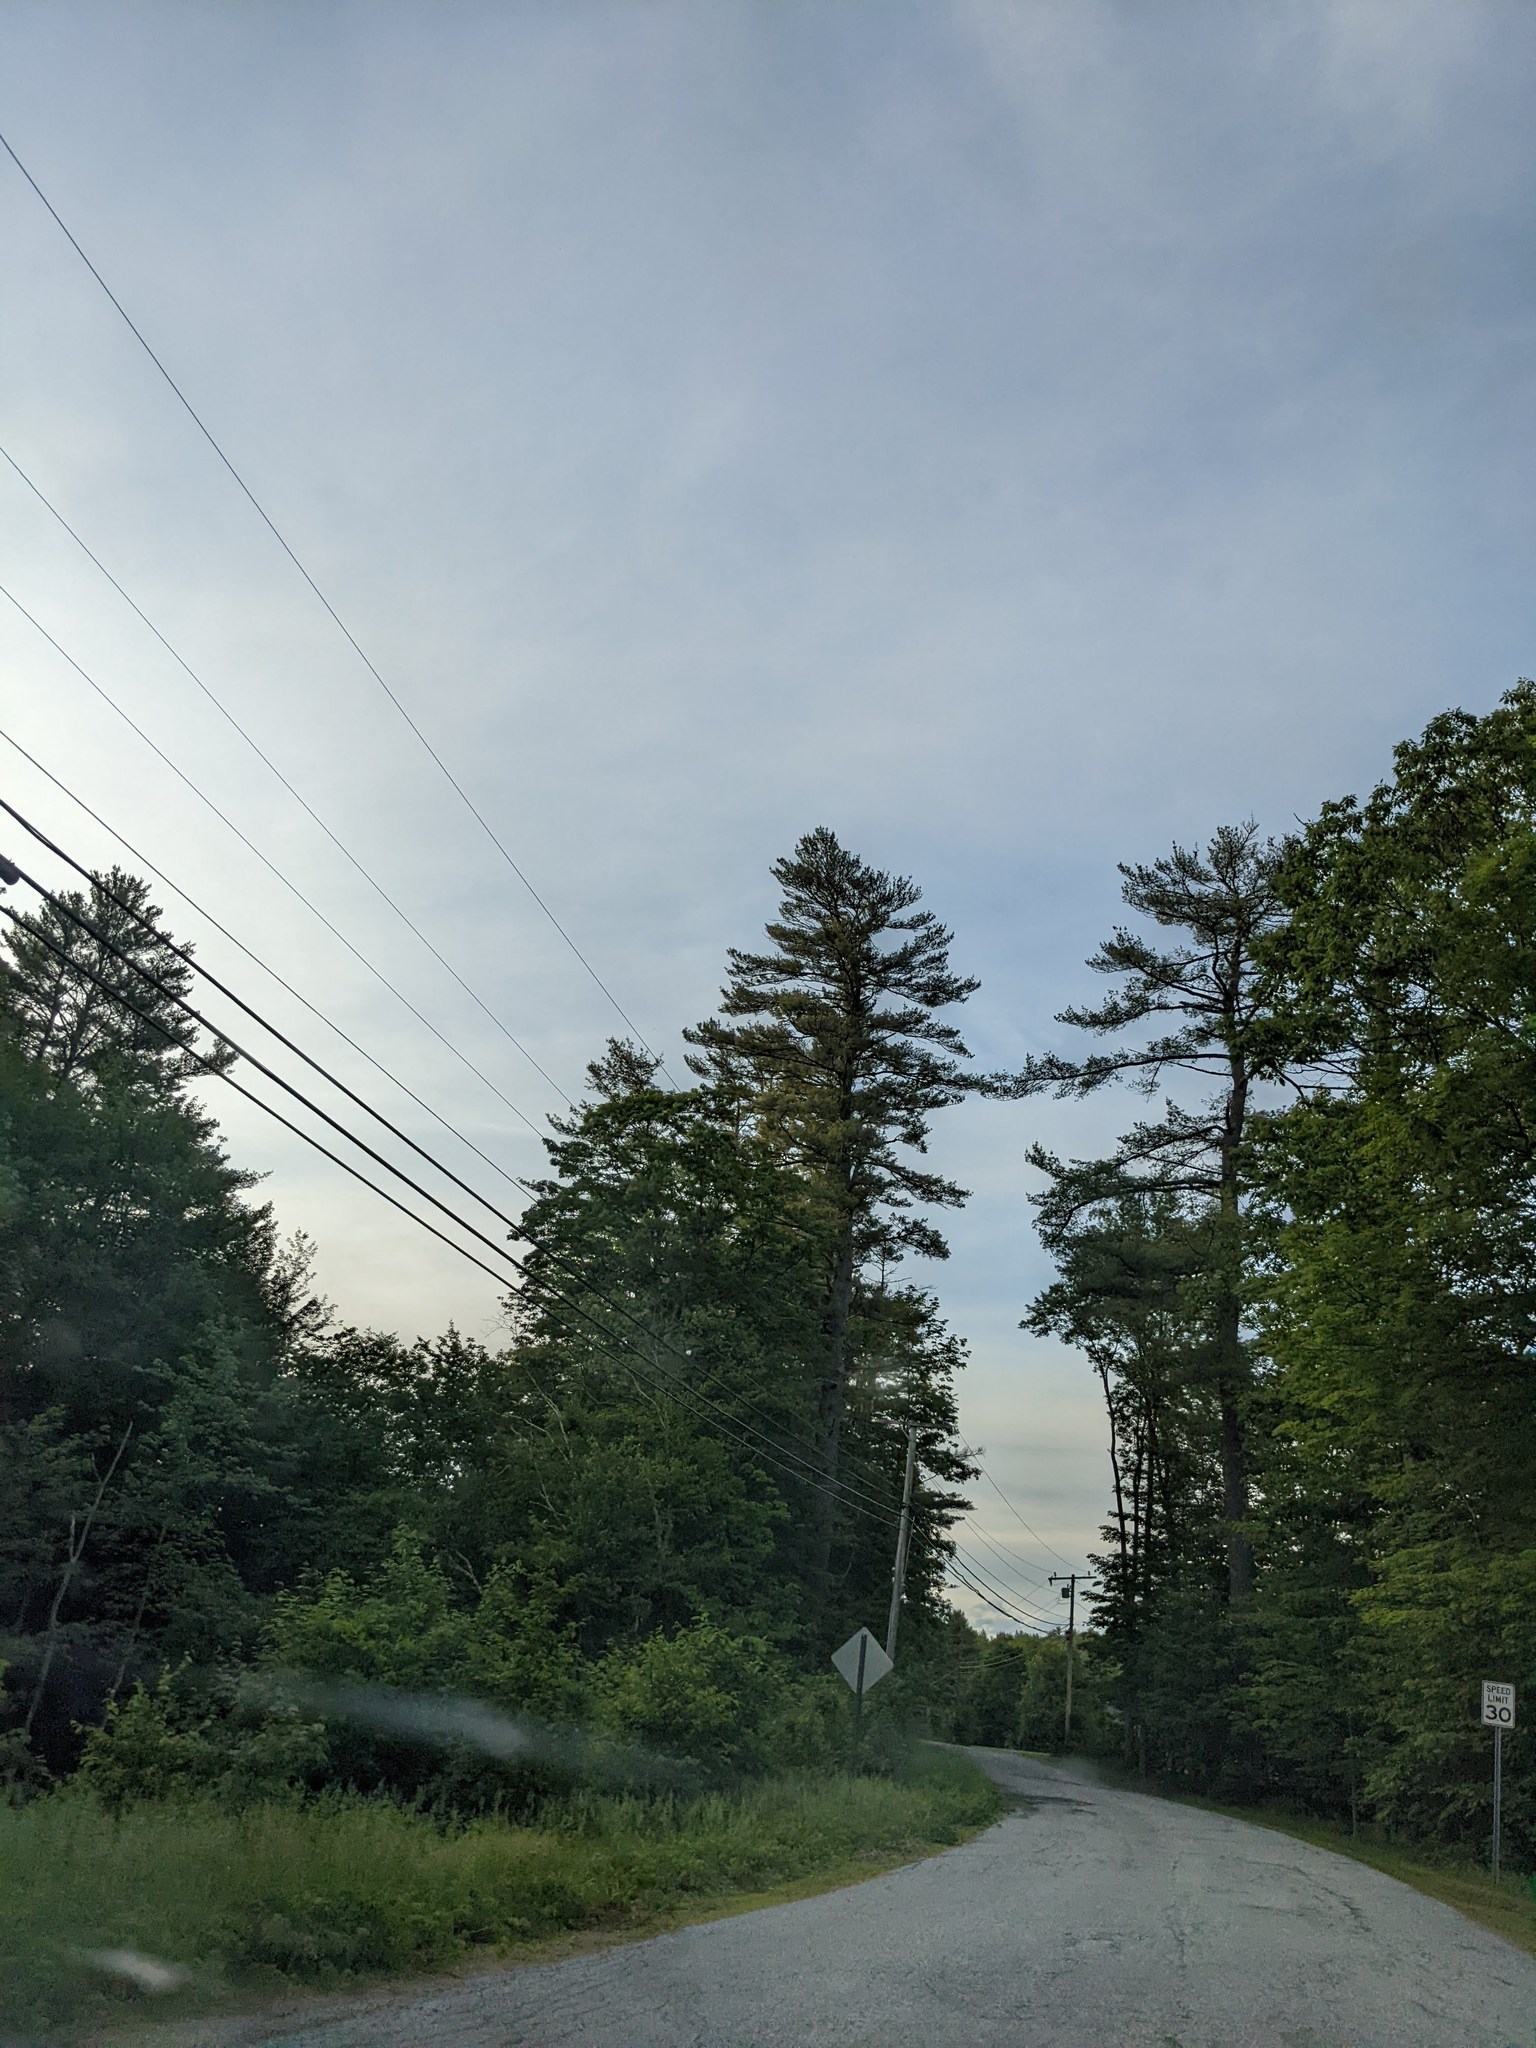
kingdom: Plantae
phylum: Tracheophyta
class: Pinopsida
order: Pinales
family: Pinaceae
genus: Pinus
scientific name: Pinus strobus
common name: Weymouth pine
